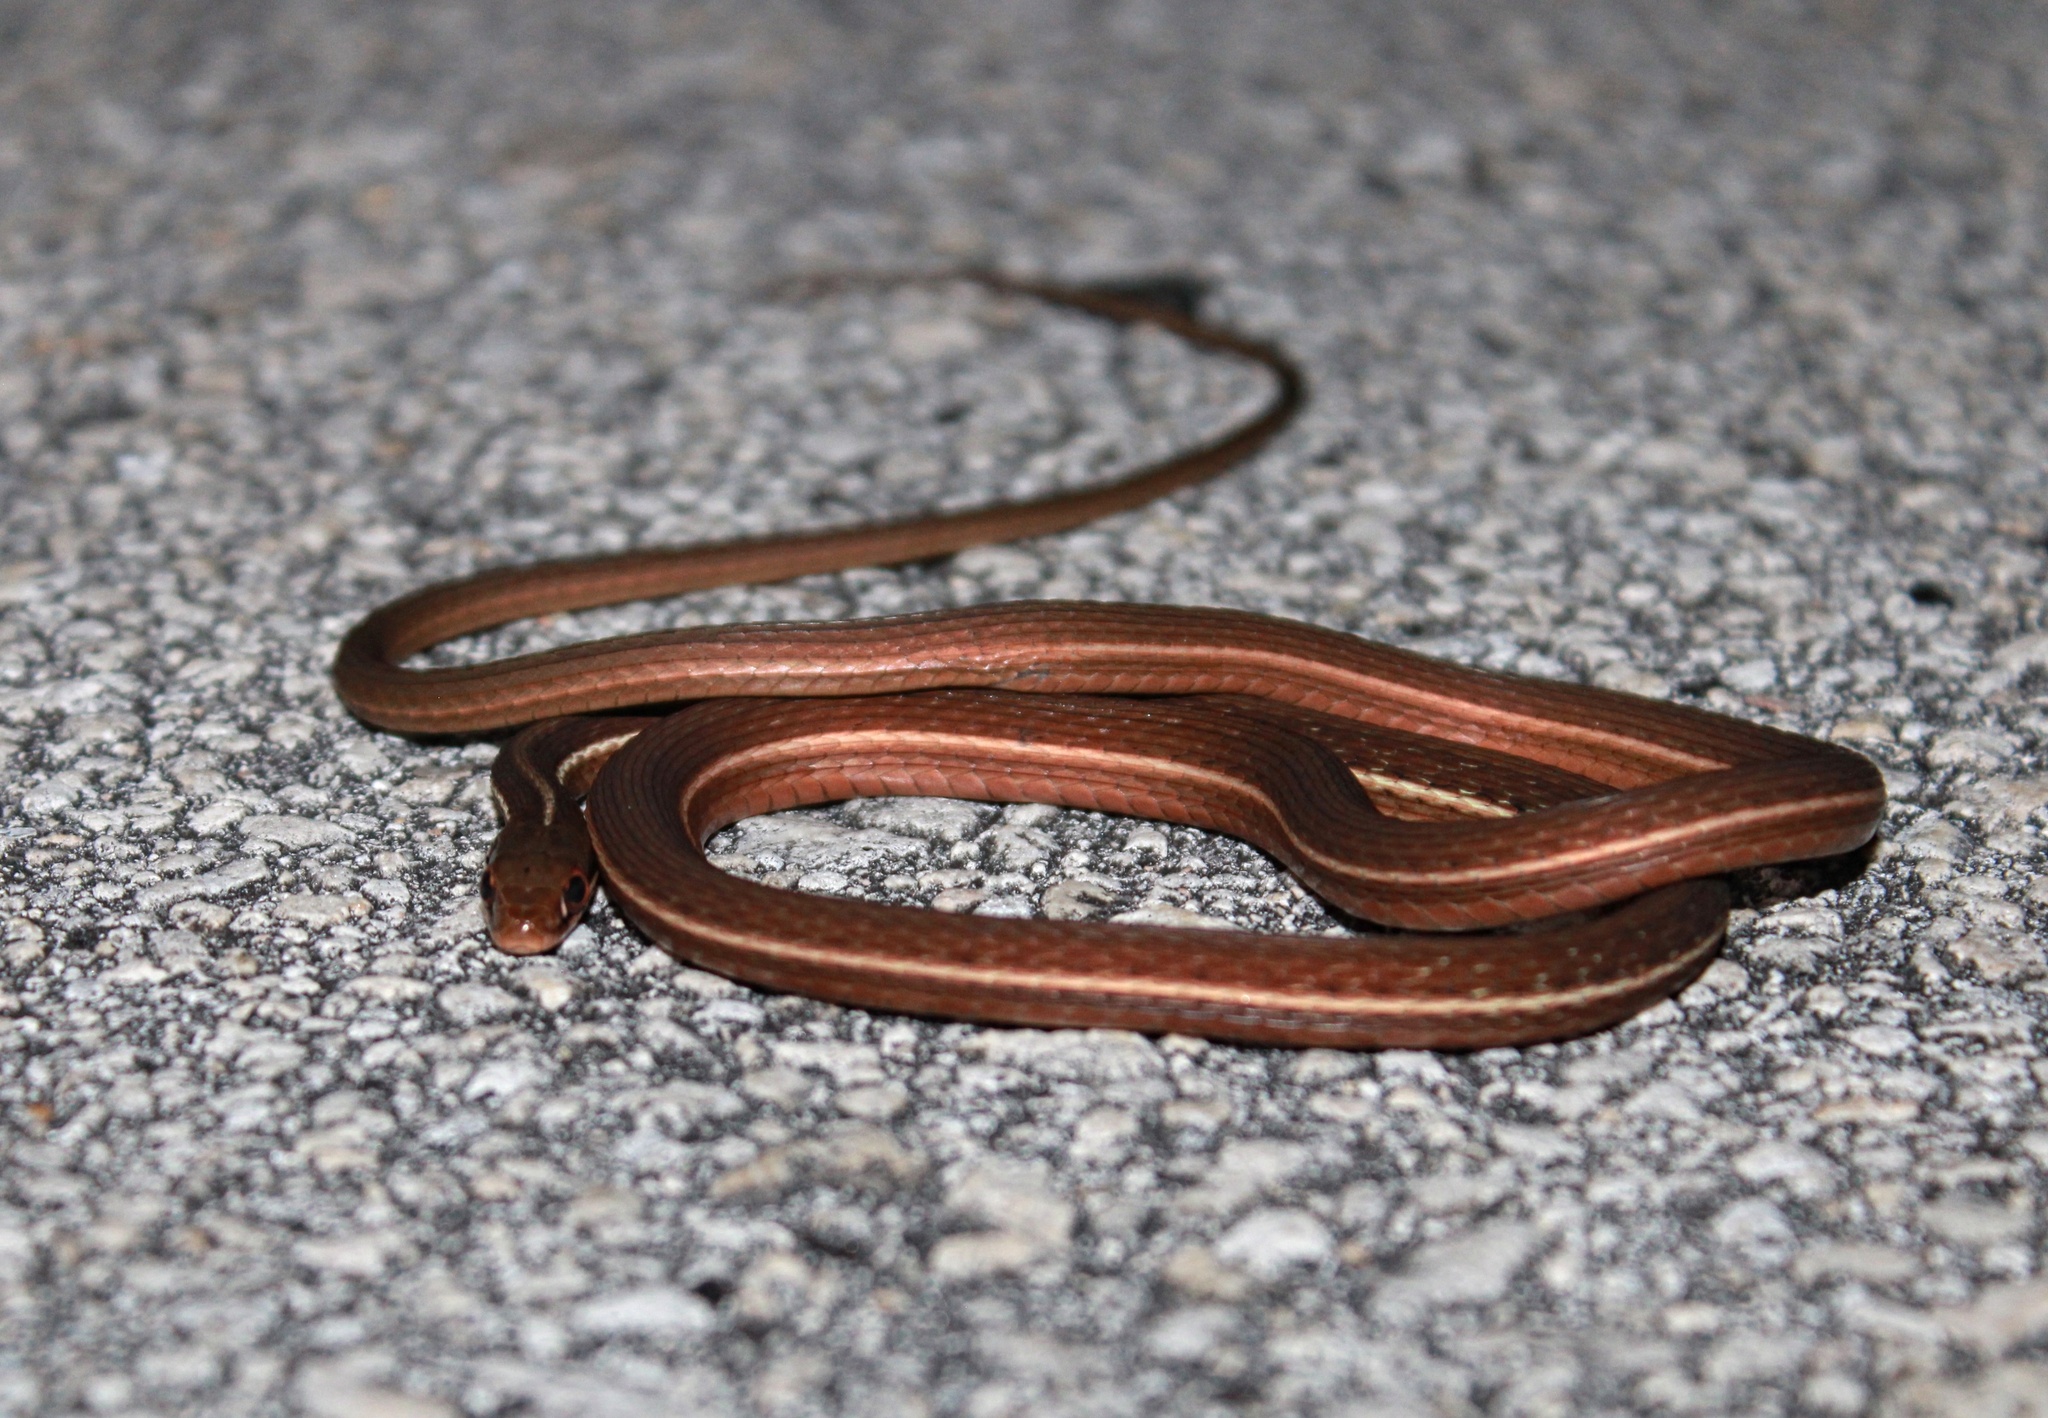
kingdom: Animalia
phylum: Chordata
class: Squamata
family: Colubridae
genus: Thamnophis
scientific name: Thamnophis saurita
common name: Eastern ribbonsnake
